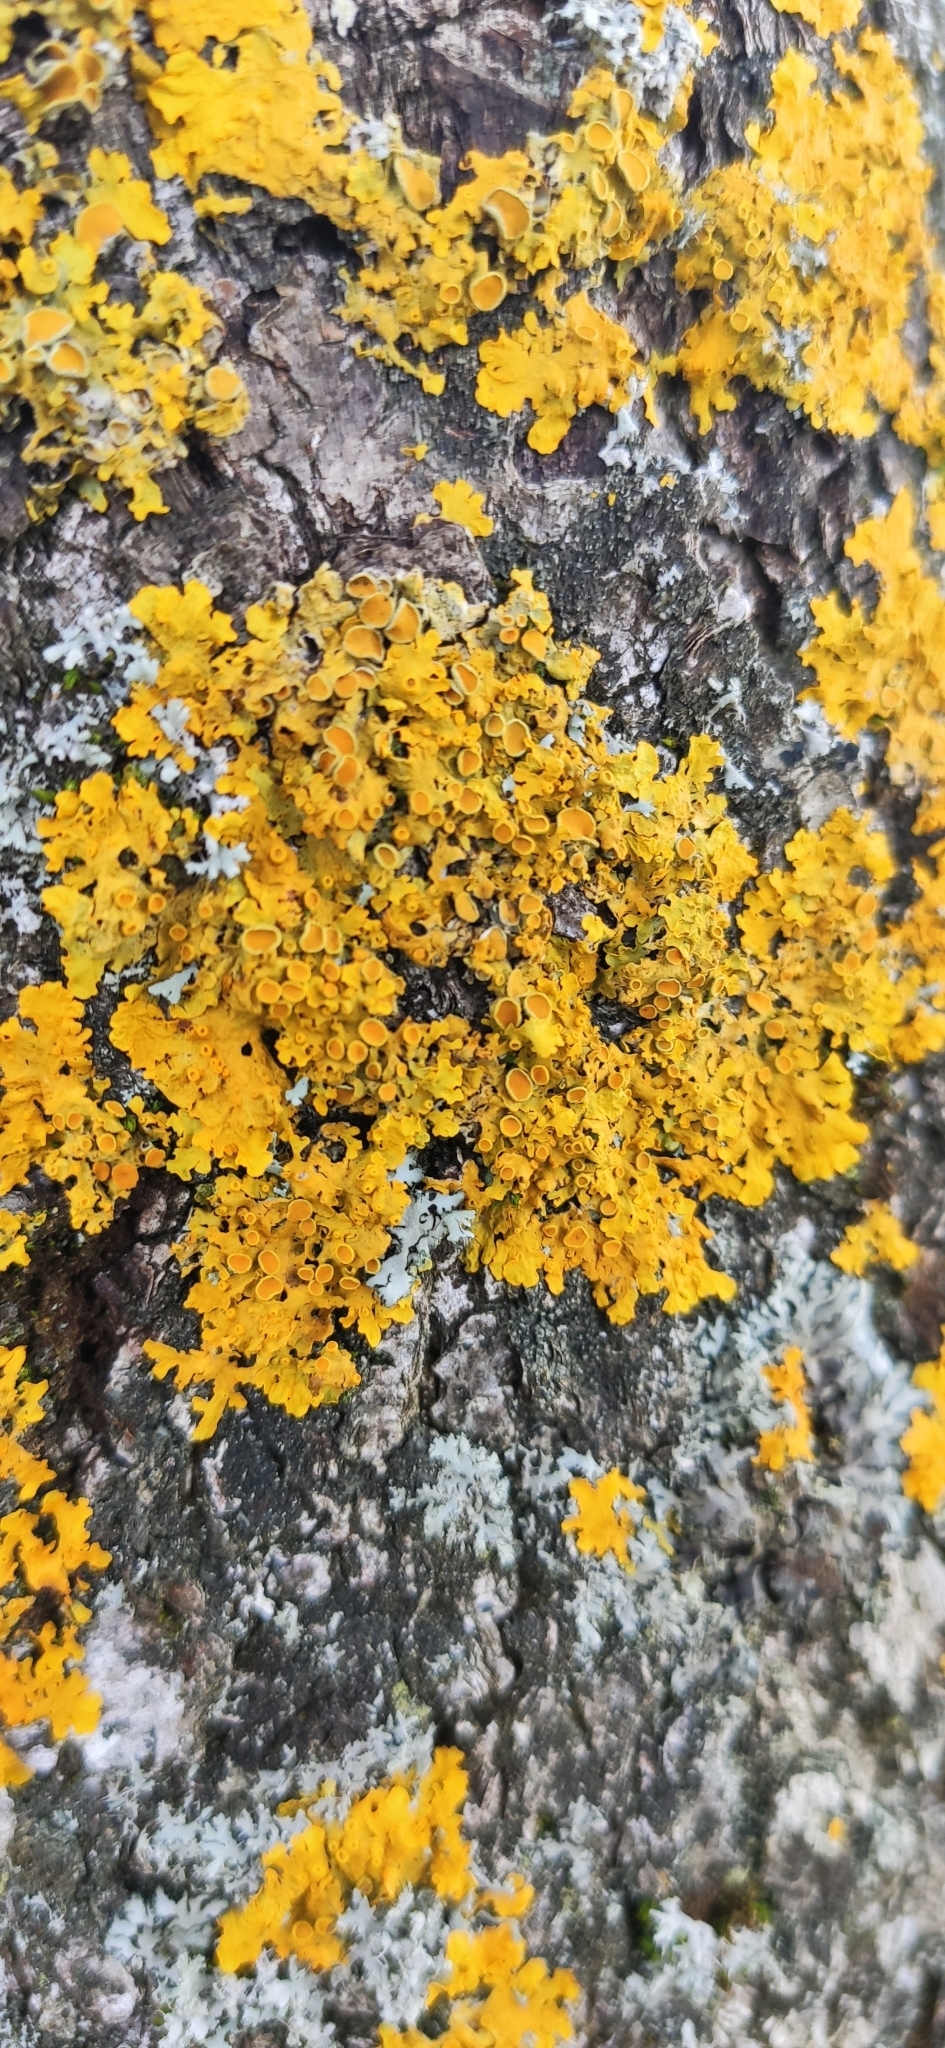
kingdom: Fungi
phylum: Ascomycota
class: Lecanoromycetes
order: Teloschistales
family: Teloschistaceae
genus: Xanthoria
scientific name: Xanthoria parietina
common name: Common orange lichen
